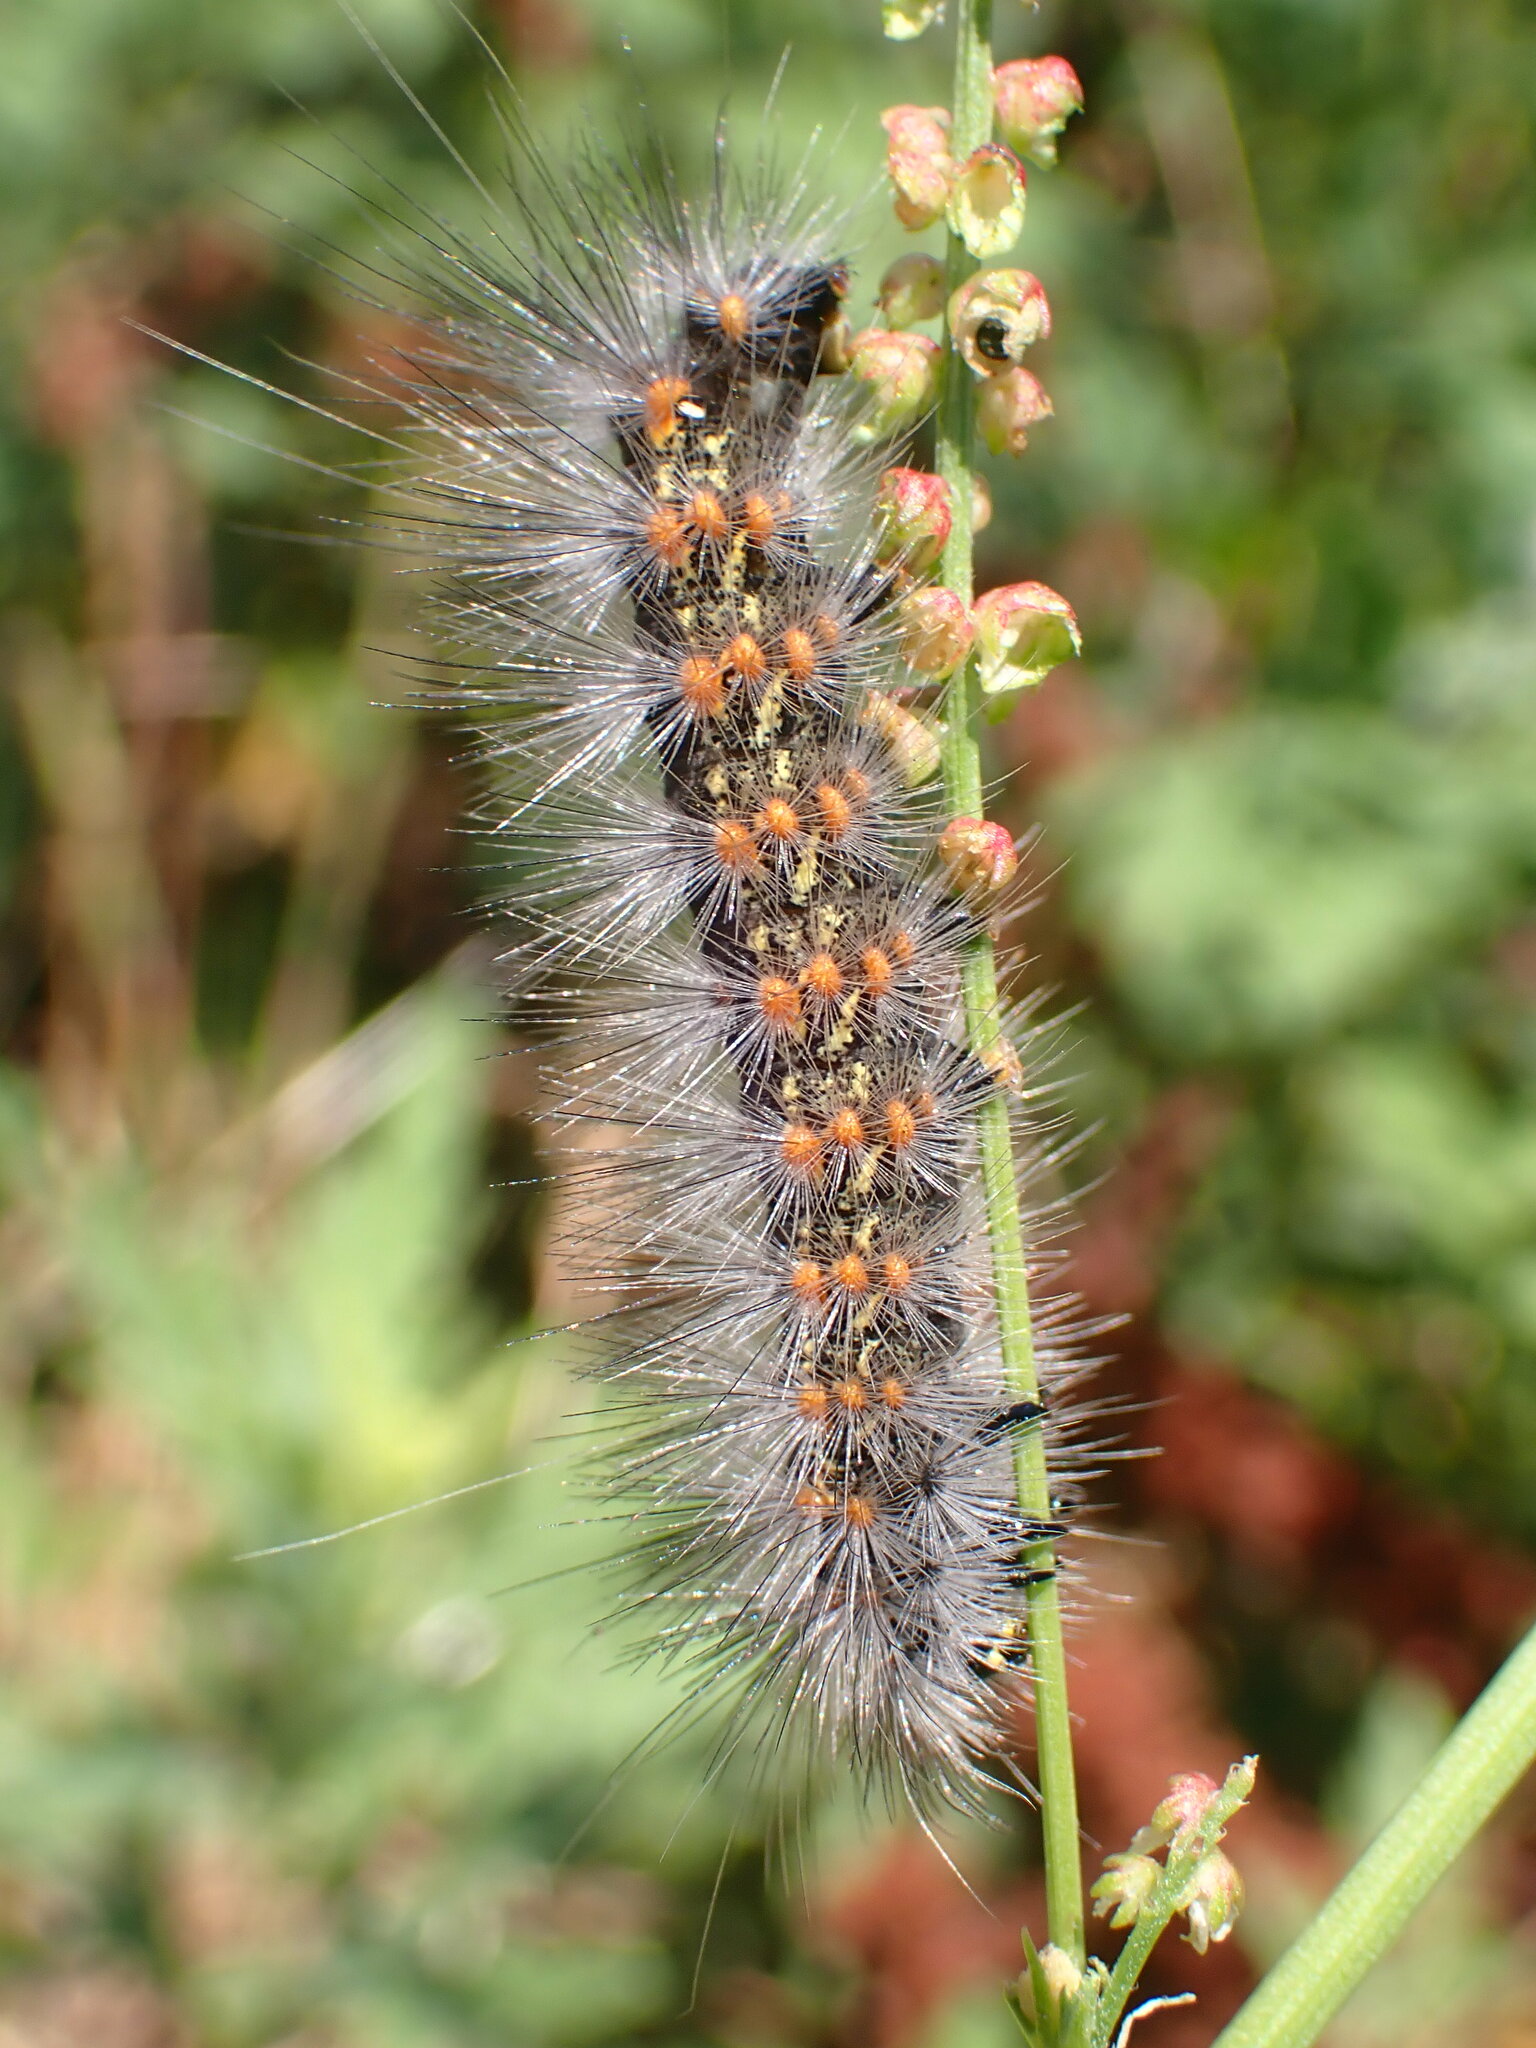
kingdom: Animalia
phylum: Arthropoda
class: Insecta
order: Lepidoptera
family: Erebidae
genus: Estigmene
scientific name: Estigmene acrea
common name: Salt marsh moth
